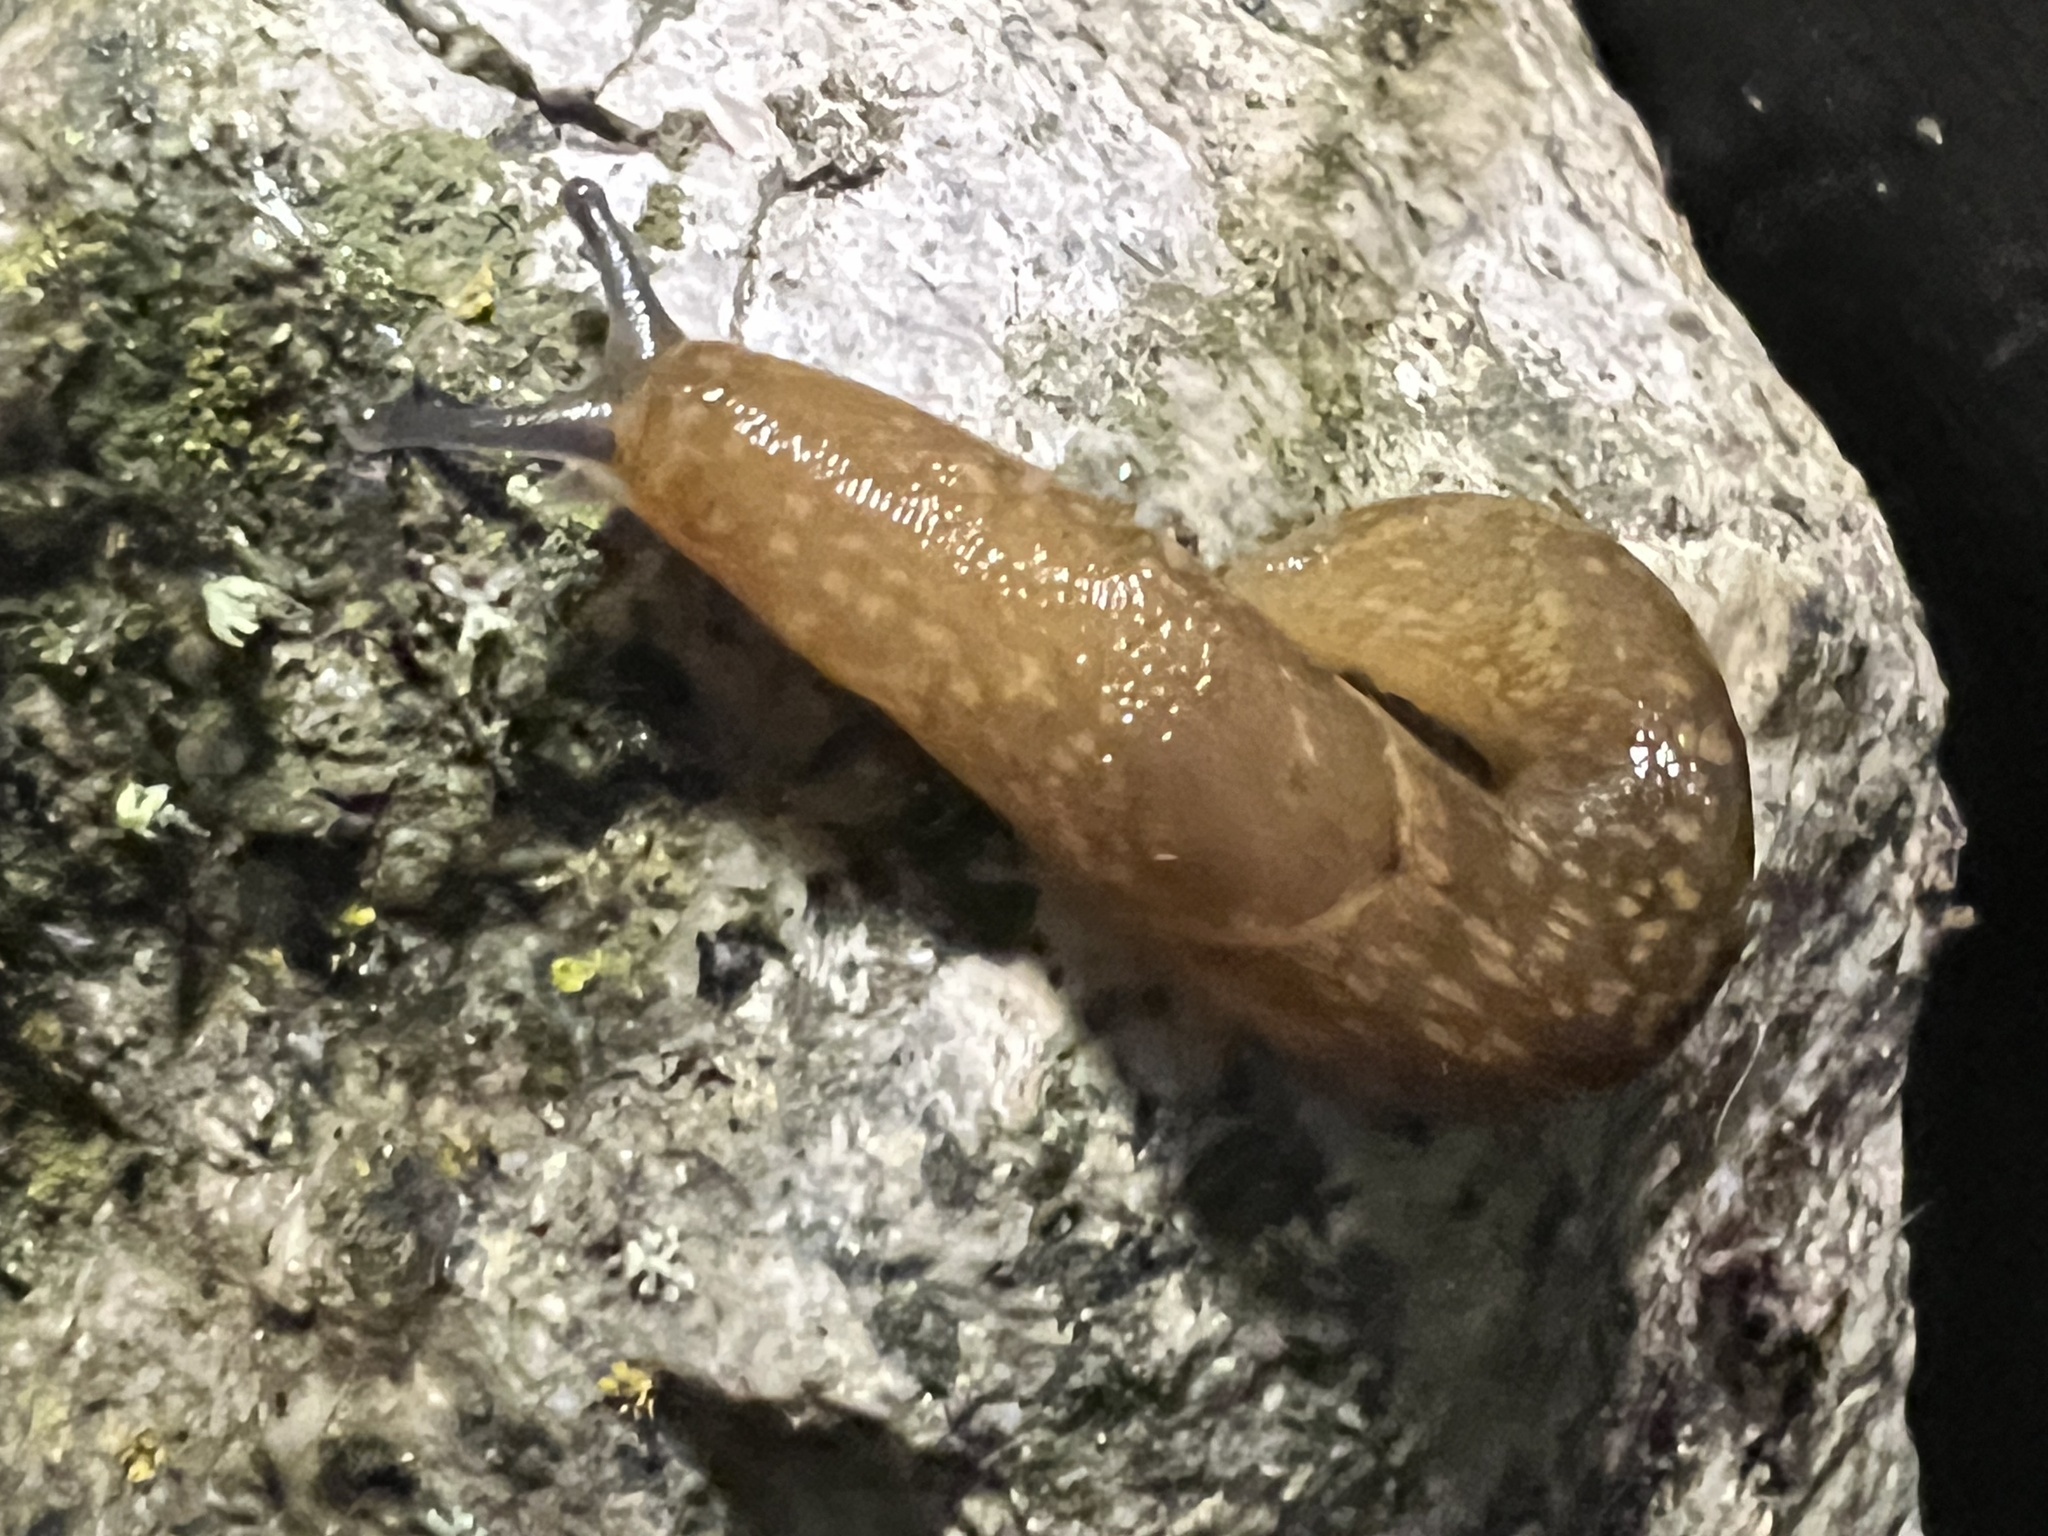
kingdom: Animalia
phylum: Mollusca
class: Gastropoda
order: Stylommatophora
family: Limacidae
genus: Limacus
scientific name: Limacus flavus
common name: Yellow gardenslug
